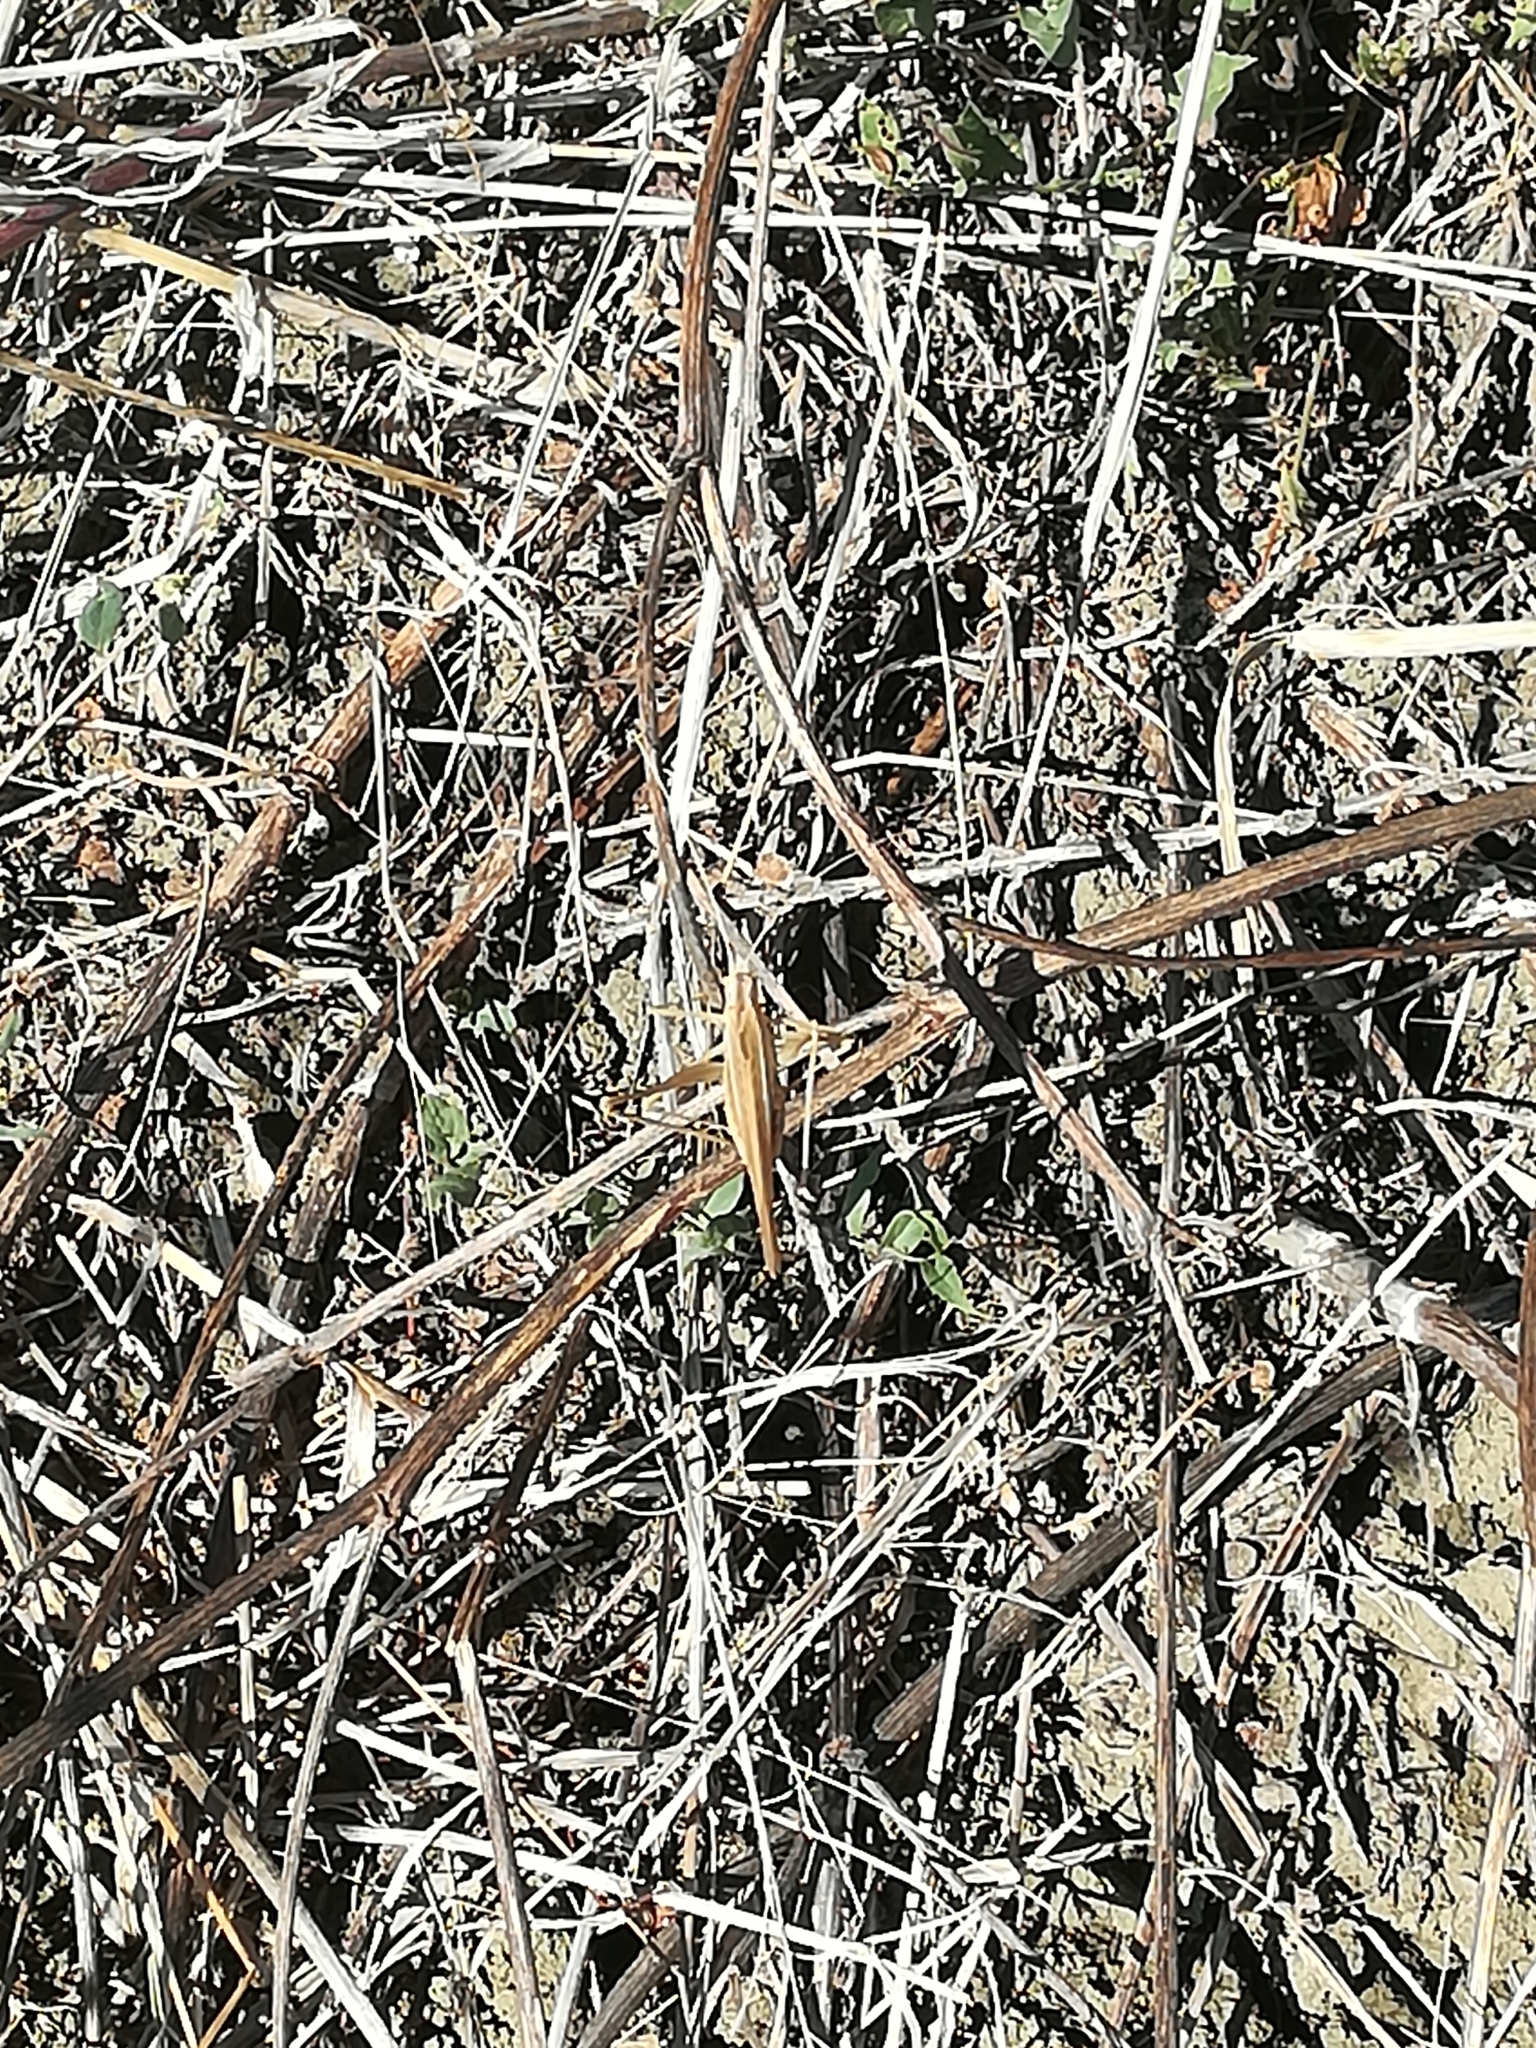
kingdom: Animalia
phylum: Arthropoda
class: Insecta
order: Orthoptera
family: Tettigoniidae
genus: Tylopsis
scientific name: Tylopsis lilifolia
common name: Lily bush-cricket
